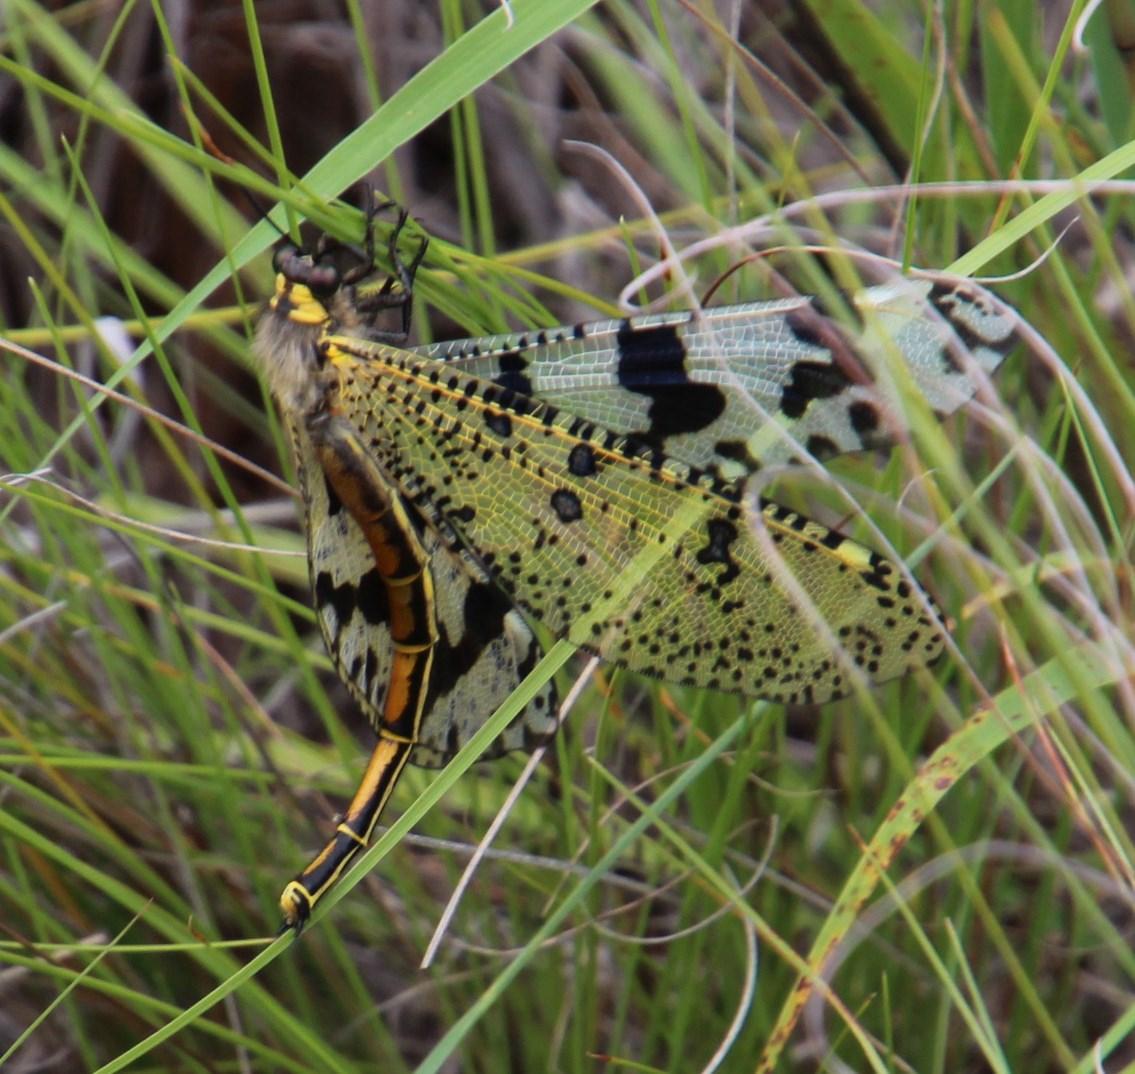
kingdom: Animalia
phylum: Arthropoda
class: Insecta
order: Neuroptera
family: Myrmeleontidae
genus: Palpares
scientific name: Palpares speciosus
